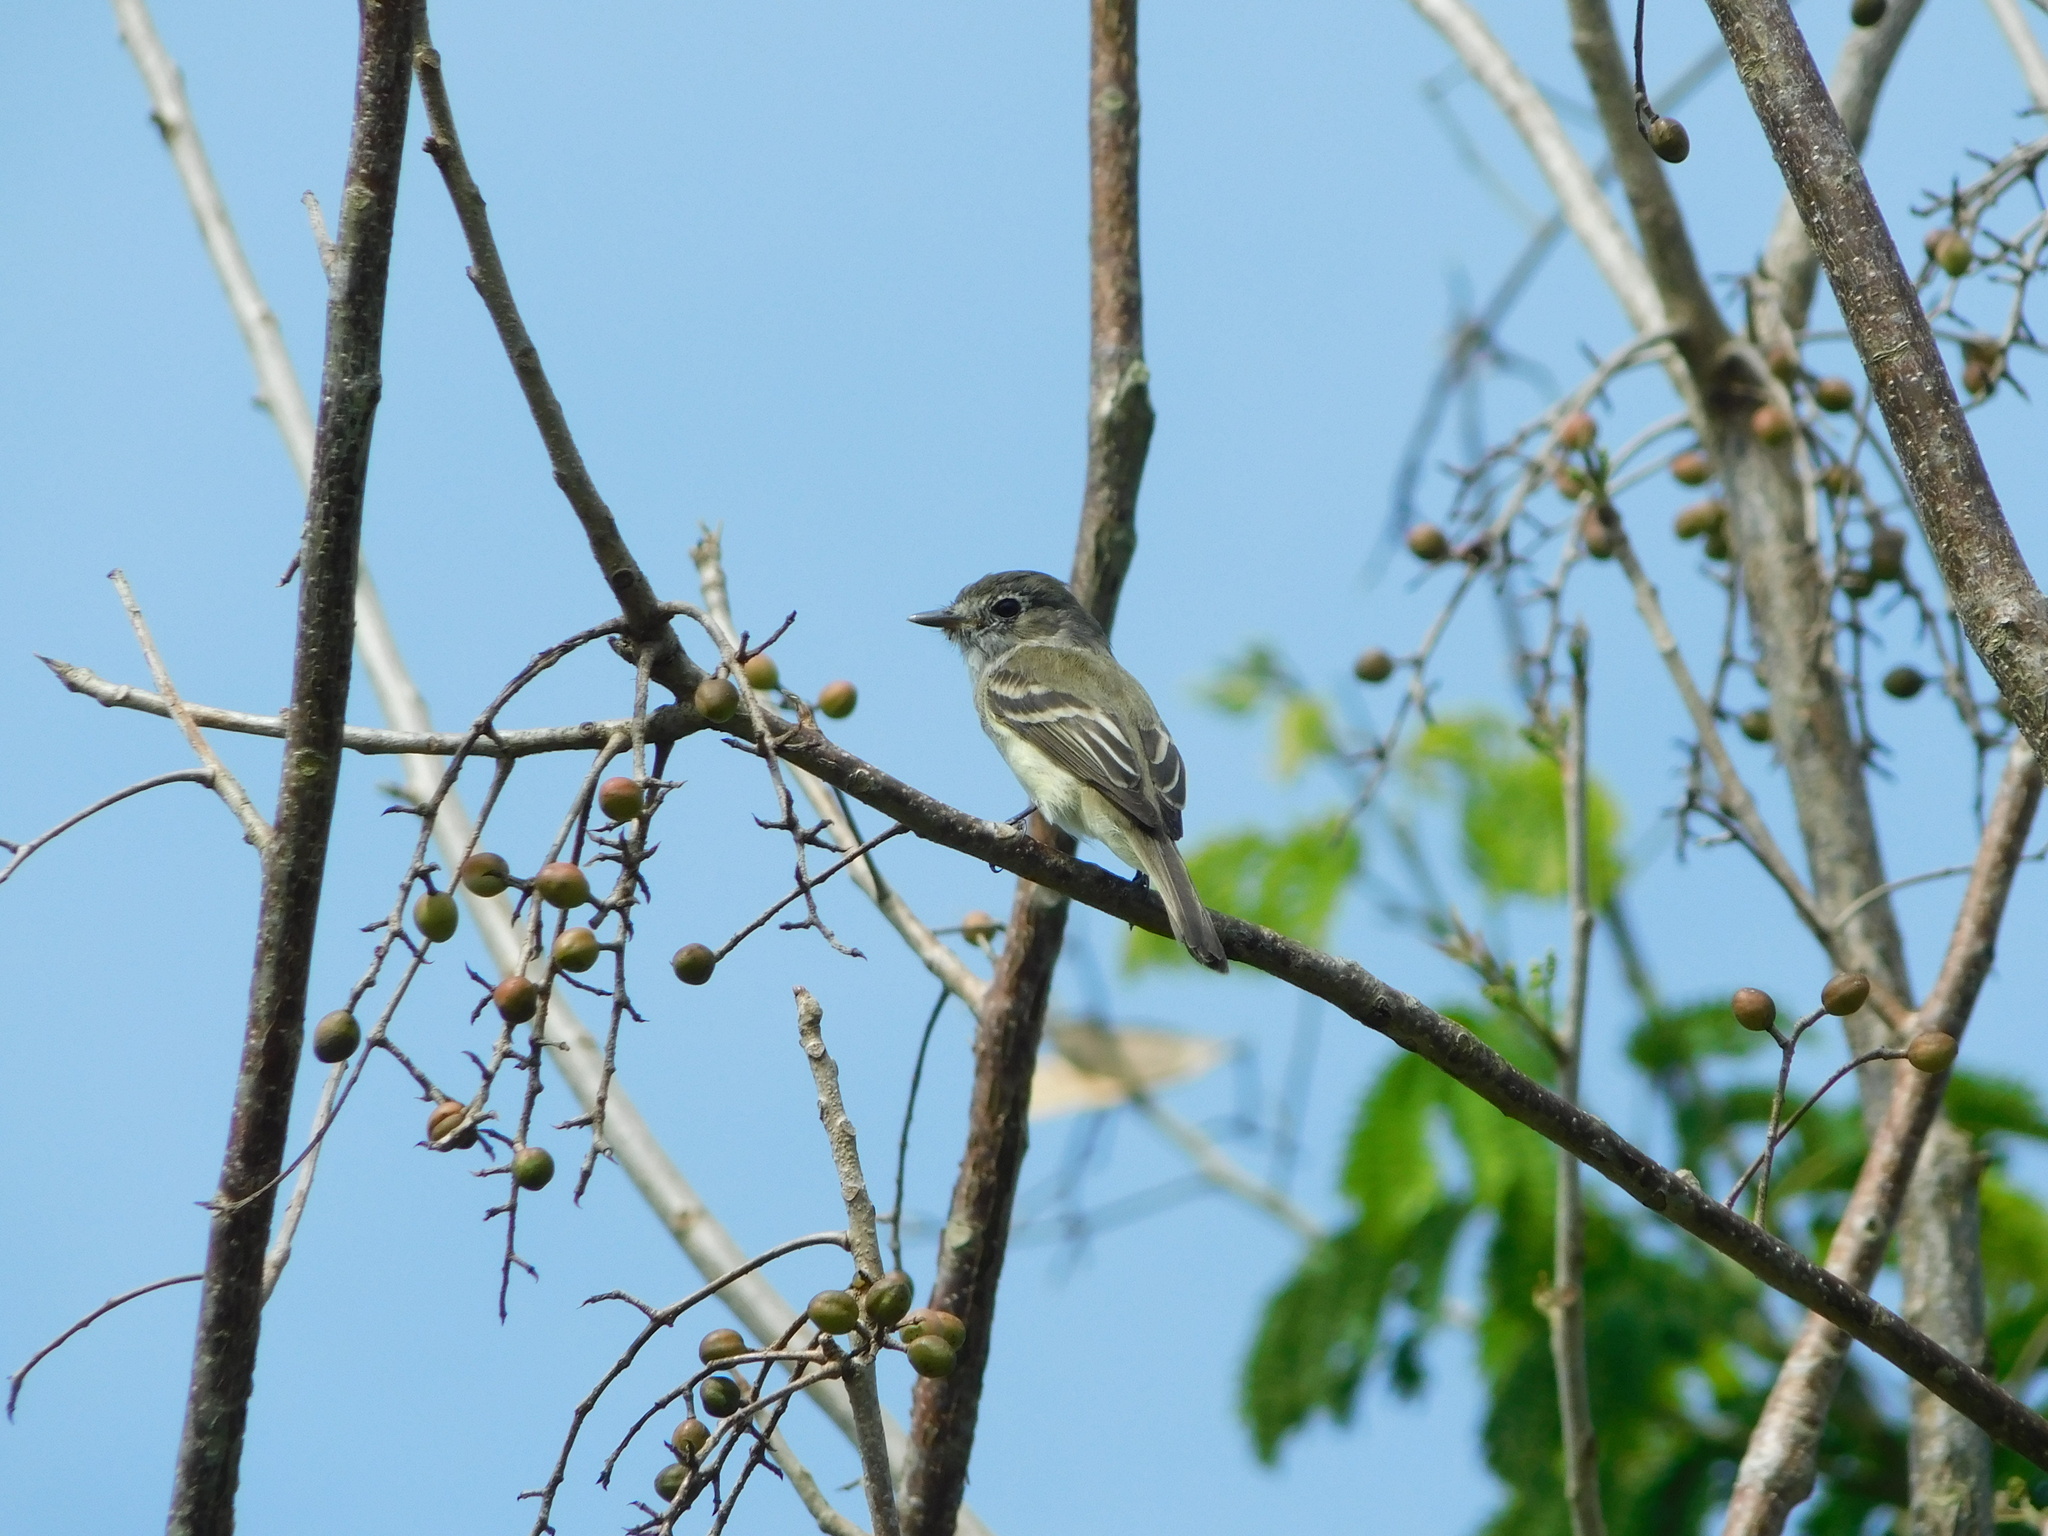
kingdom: Animalia
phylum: Chordata
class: Aves
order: Passeriformes
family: Tyrannidae
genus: Empidonax
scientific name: Empidonax minimus
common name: Least flycatcher
